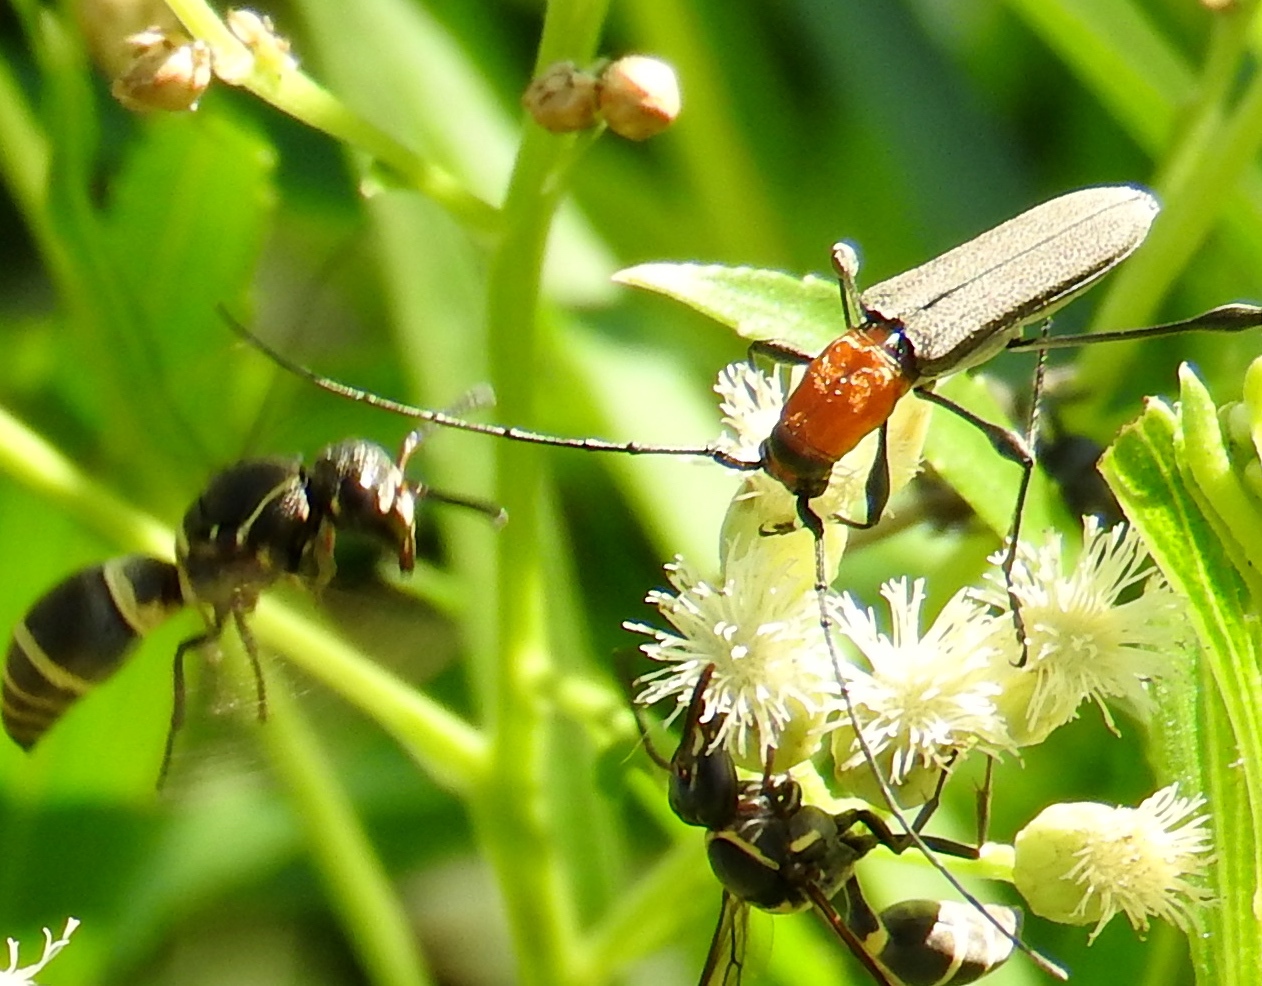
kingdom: Animalia
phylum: Arthropoda
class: Insecta
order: Coleoptera
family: Cerambycidae
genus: Rhopalophora
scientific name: Rhopalophora
